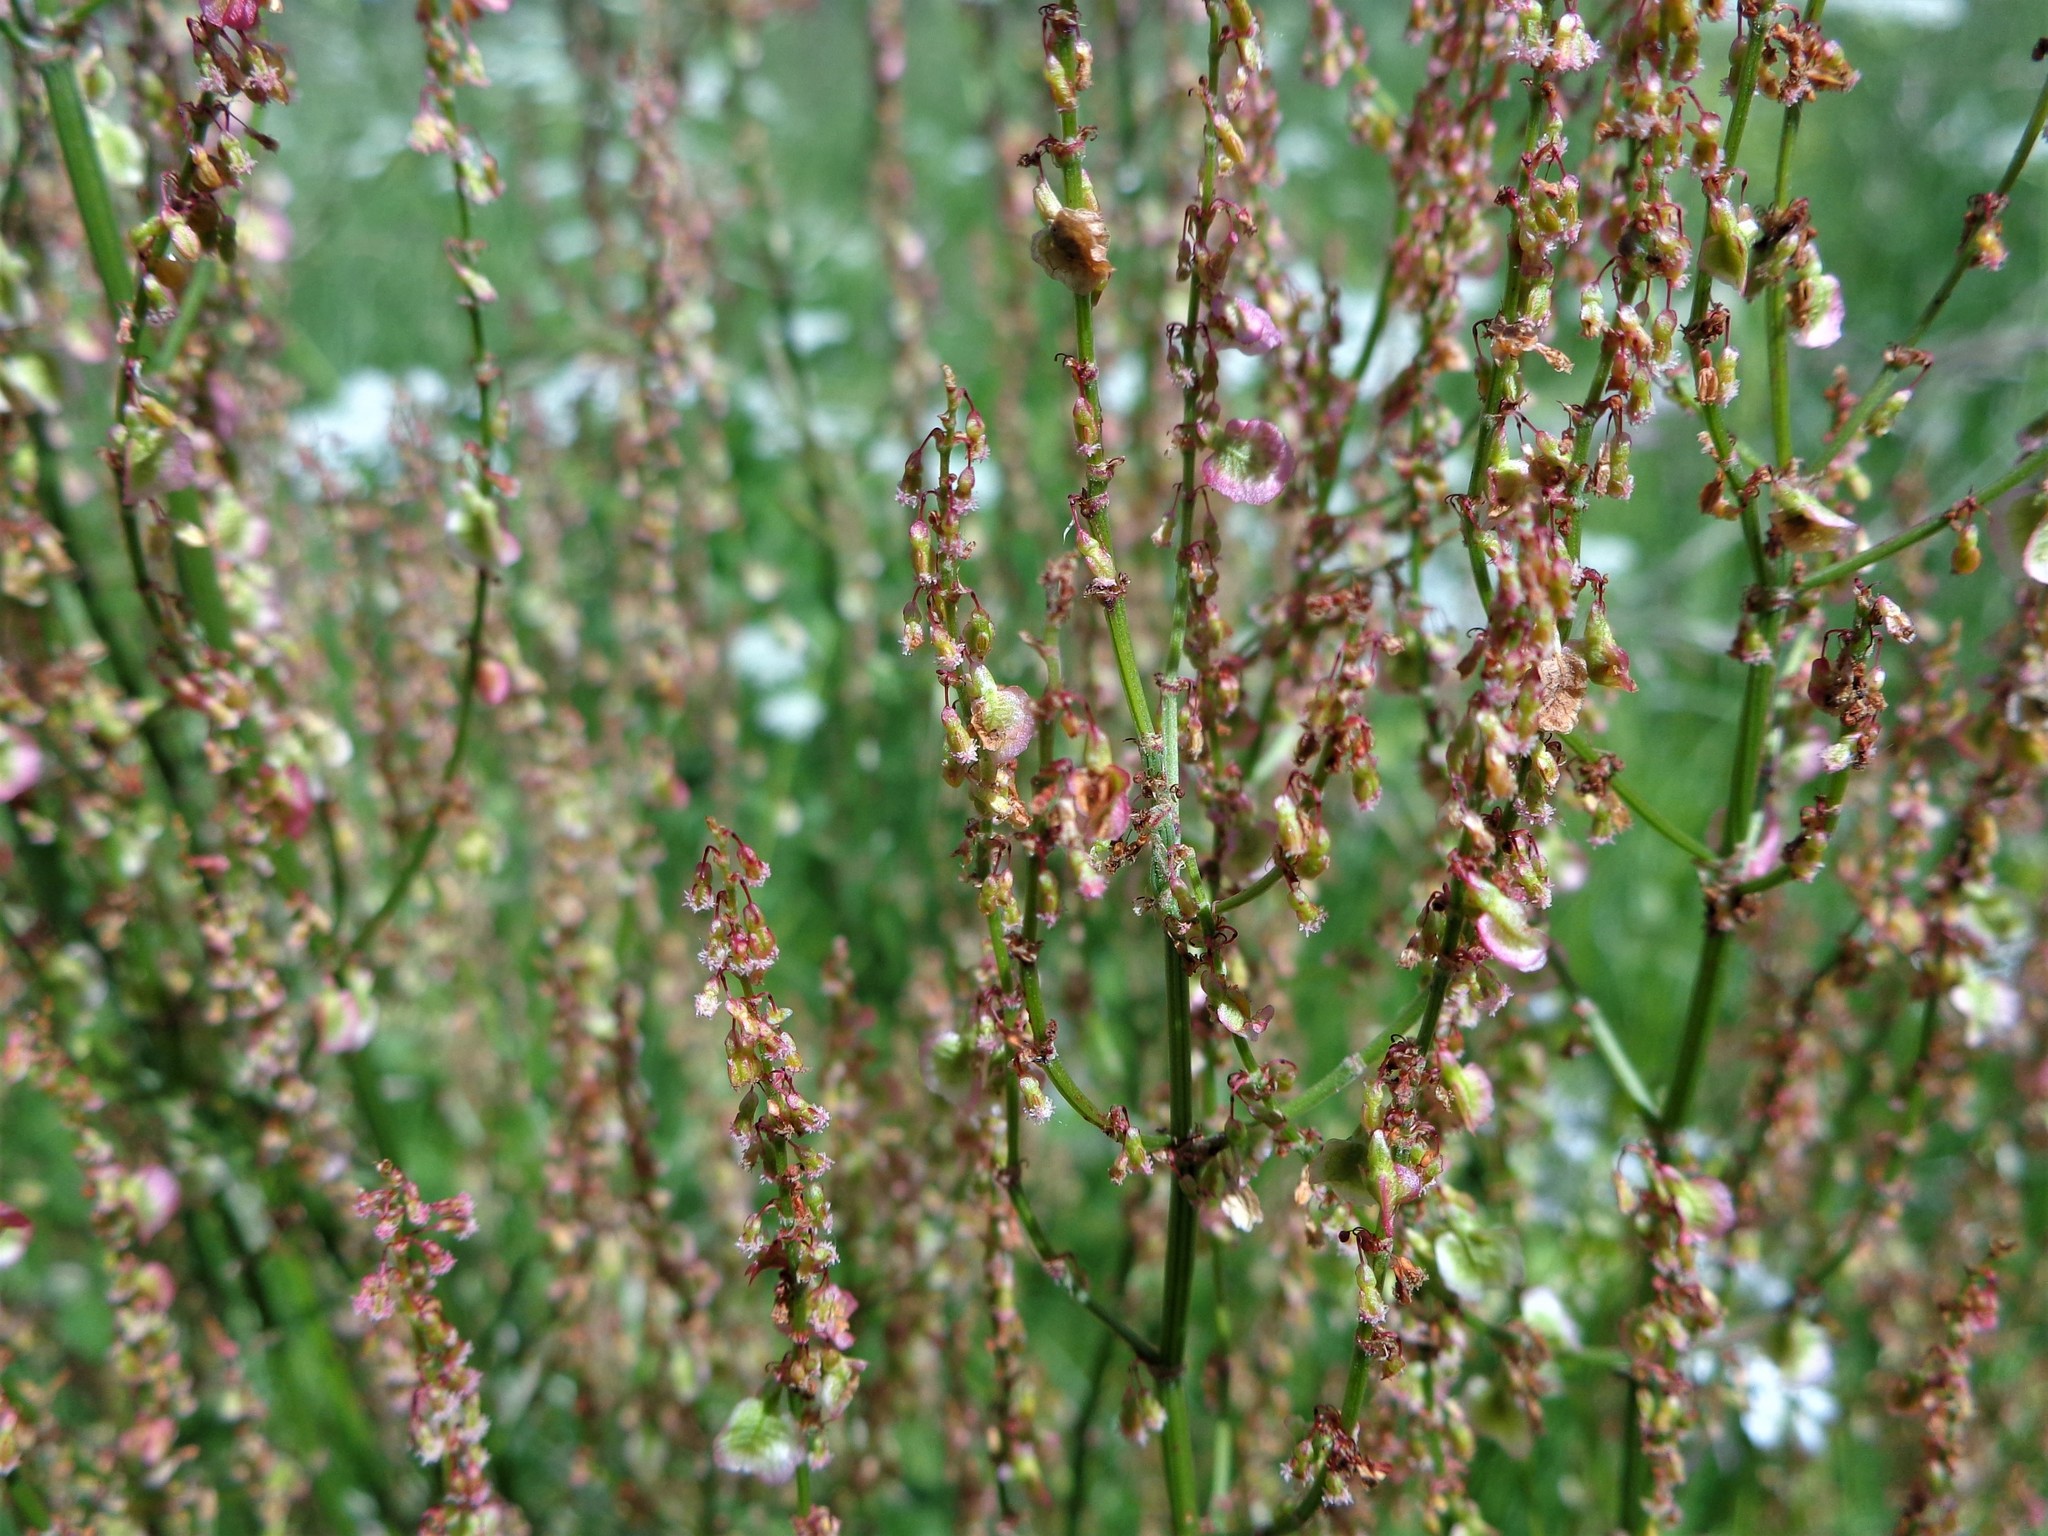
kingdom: Plantae
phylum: Tracheophyta
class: Magnoliopsida
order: Caryophyllales
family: Polygonaceae
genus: Rumex
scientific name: Rumex acetosa
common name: Garden sorrel
